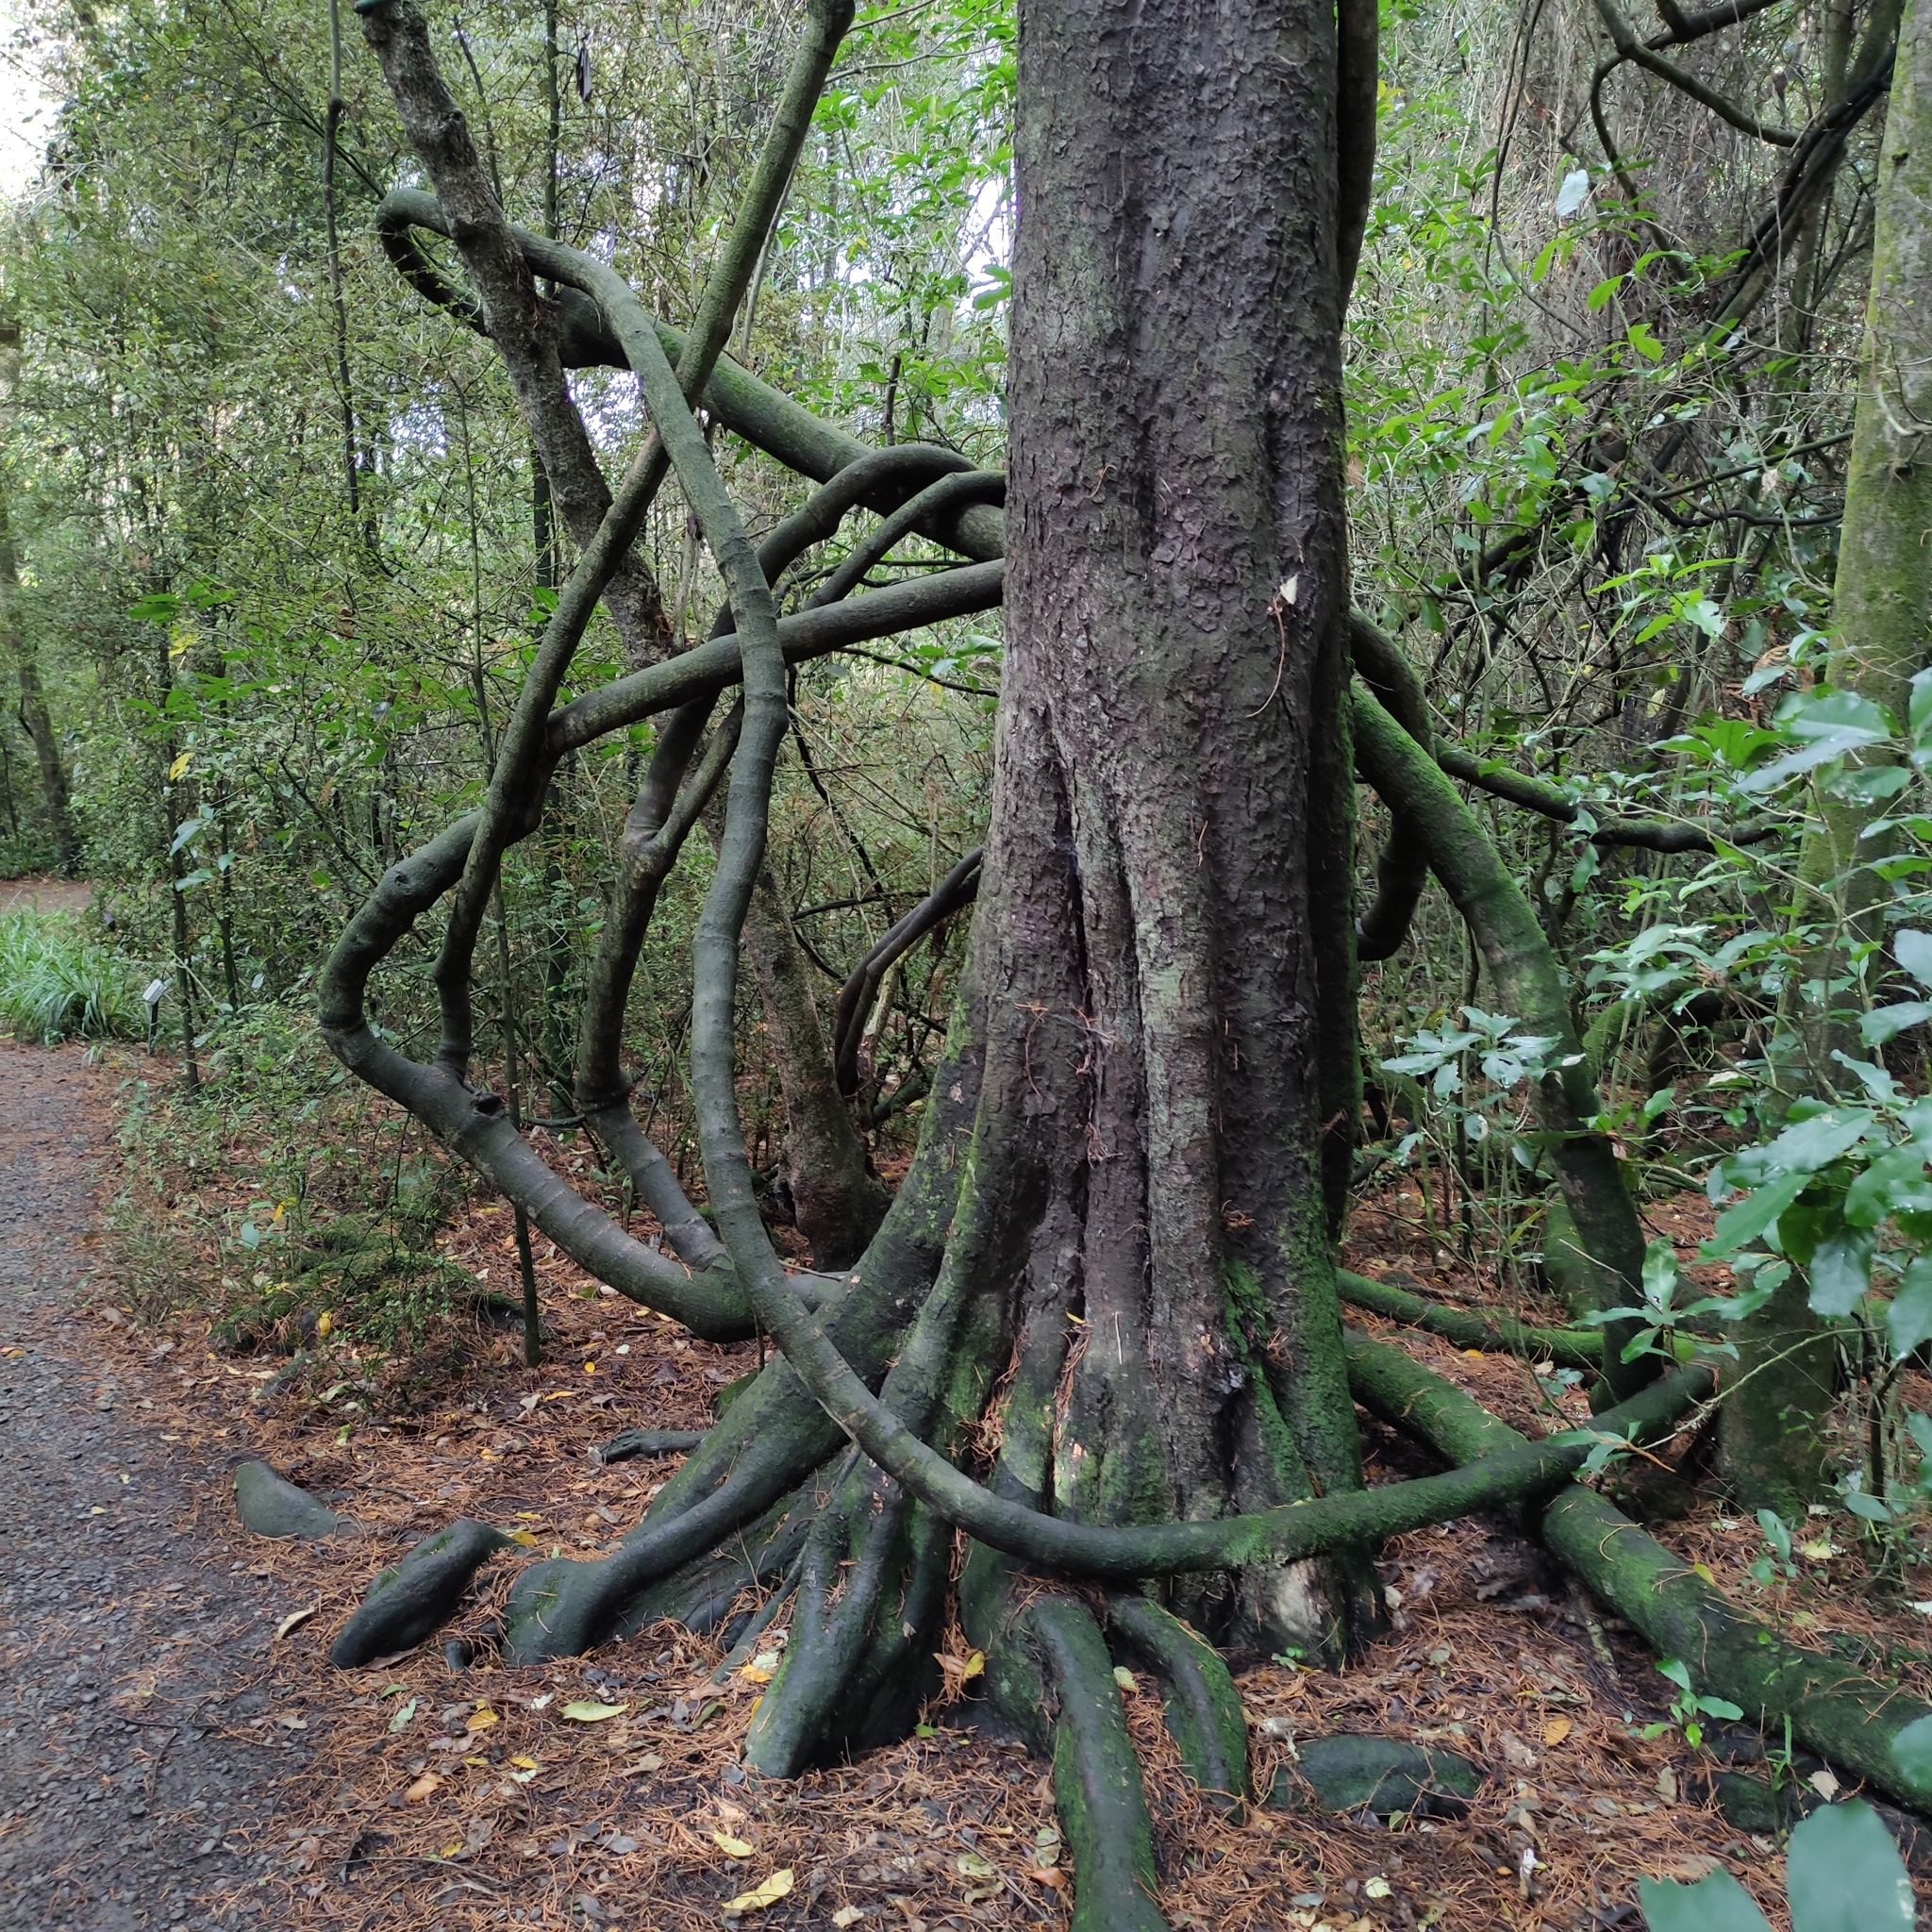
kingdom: Plantae
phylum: Tracheophyta
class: Magnoliopsida
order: Malpighiales
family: Passifloraceae
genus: Passiflora
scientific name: Passiflora tetrandra
